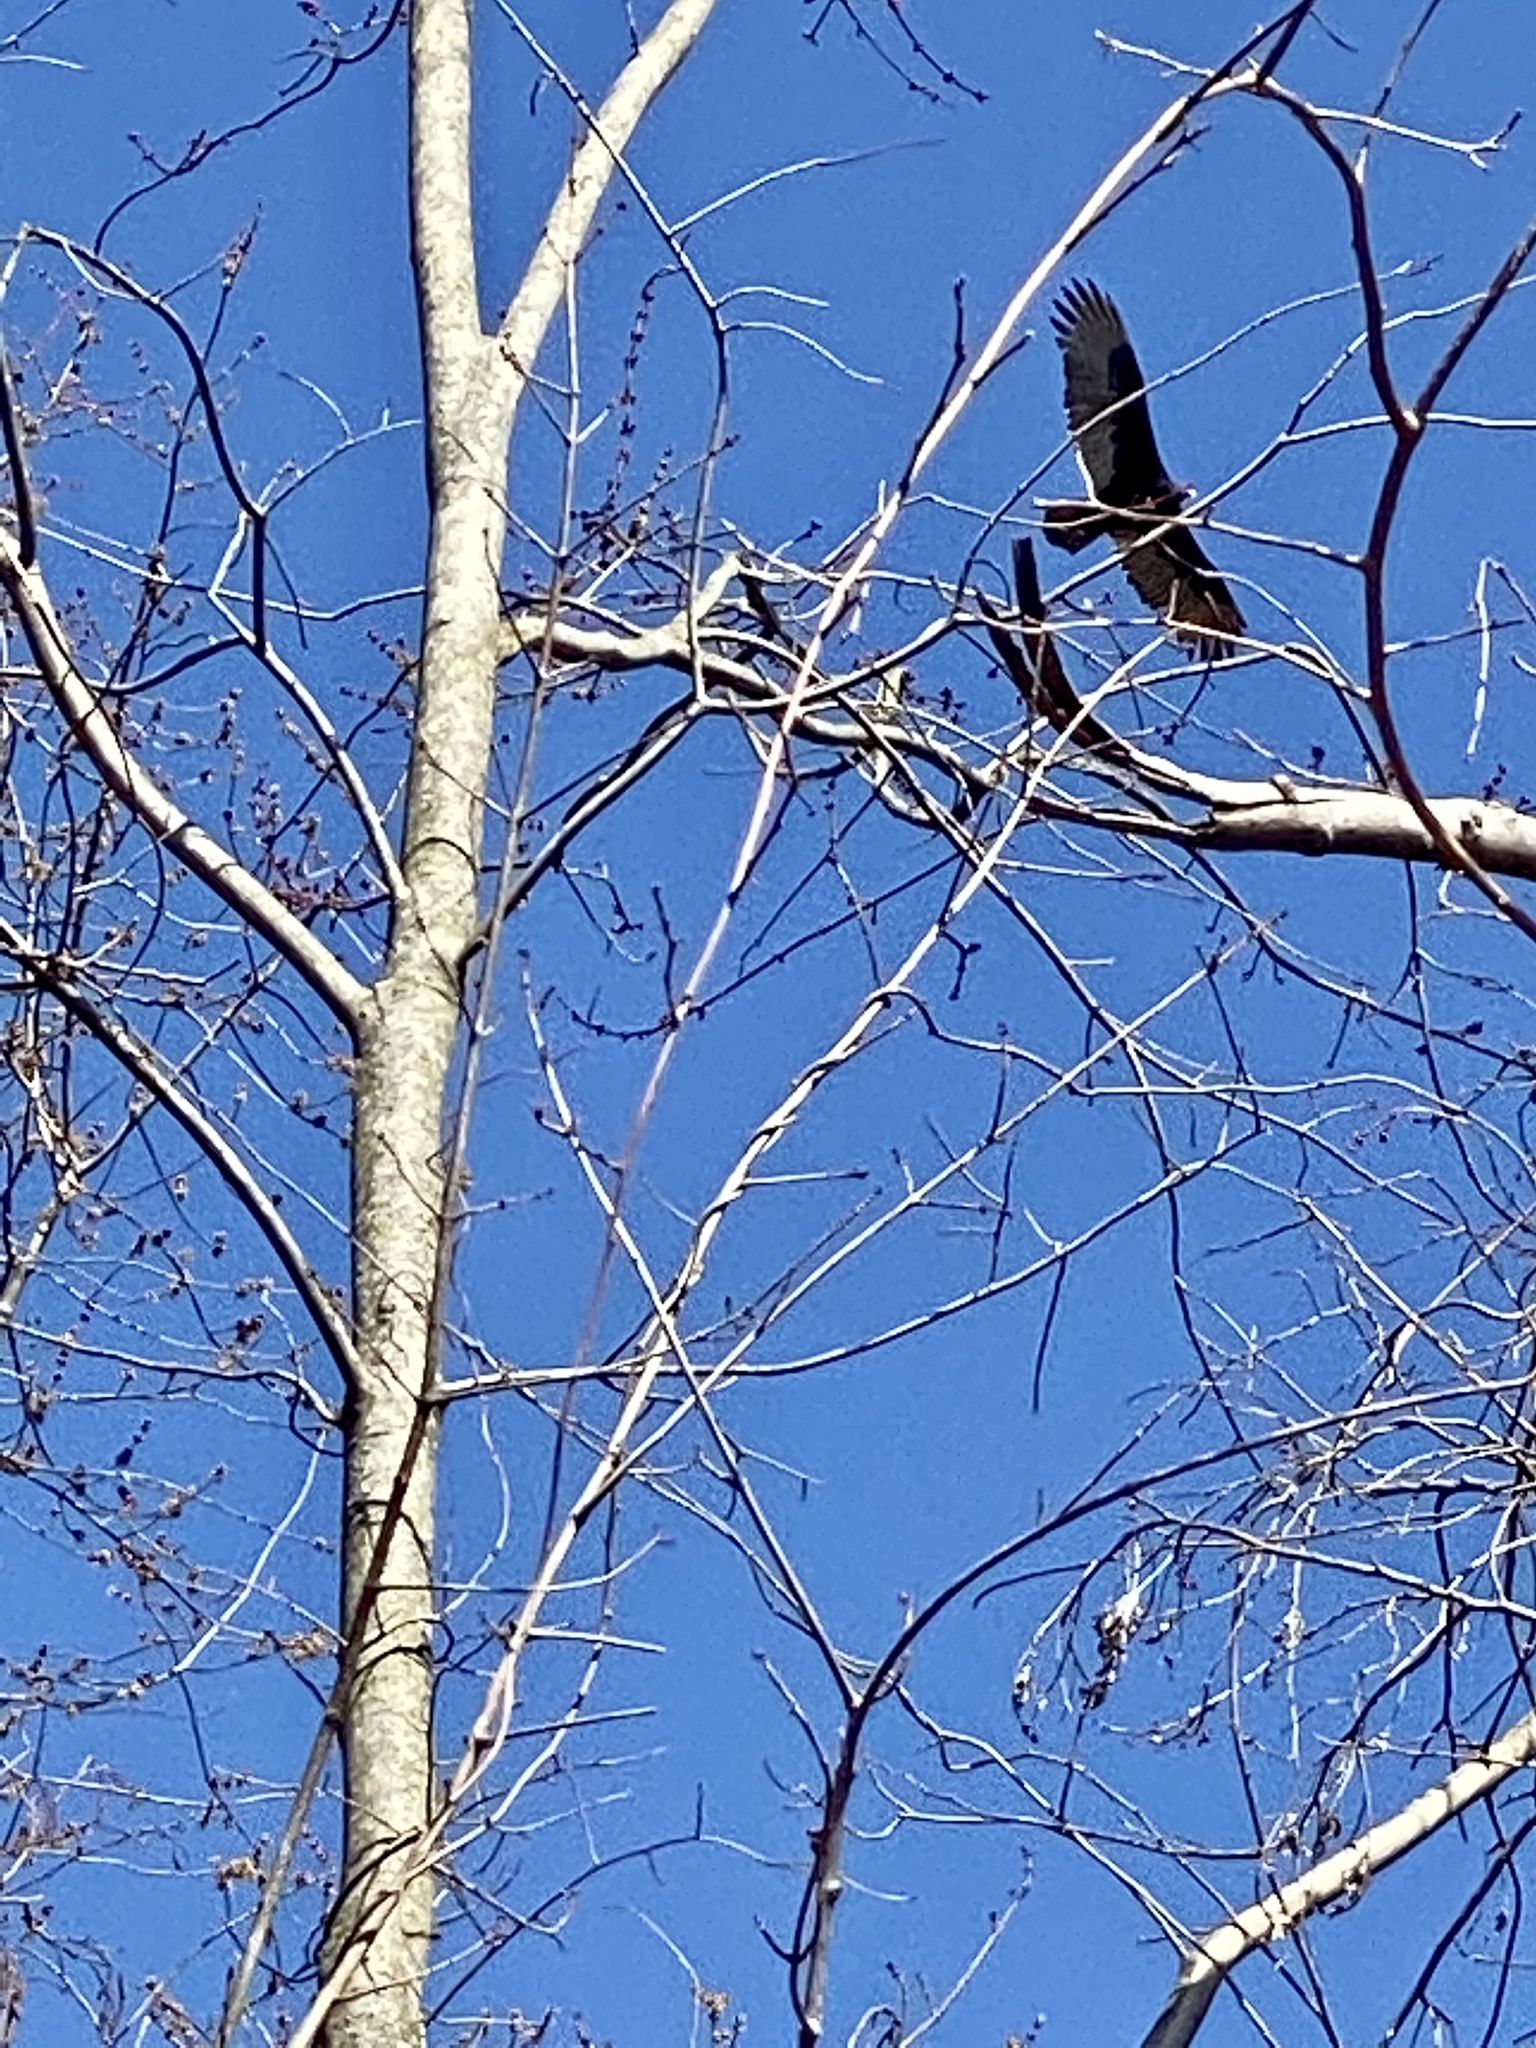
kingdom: Animalia
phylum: Chordata
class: Aves
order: Accipitriformes
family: Cathartidae
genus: Cathartes
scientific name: Cathartes aura
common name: Turkey vulture
